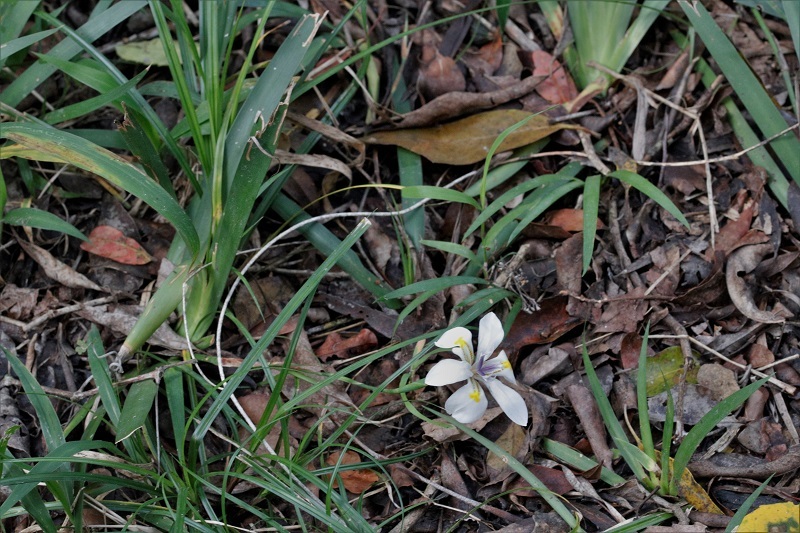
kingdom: Plantae
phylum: Tracheophyta
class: Liliopsida
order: Asparagales
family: Iridaceae
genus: Dietes
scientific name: Dietes iridioides
